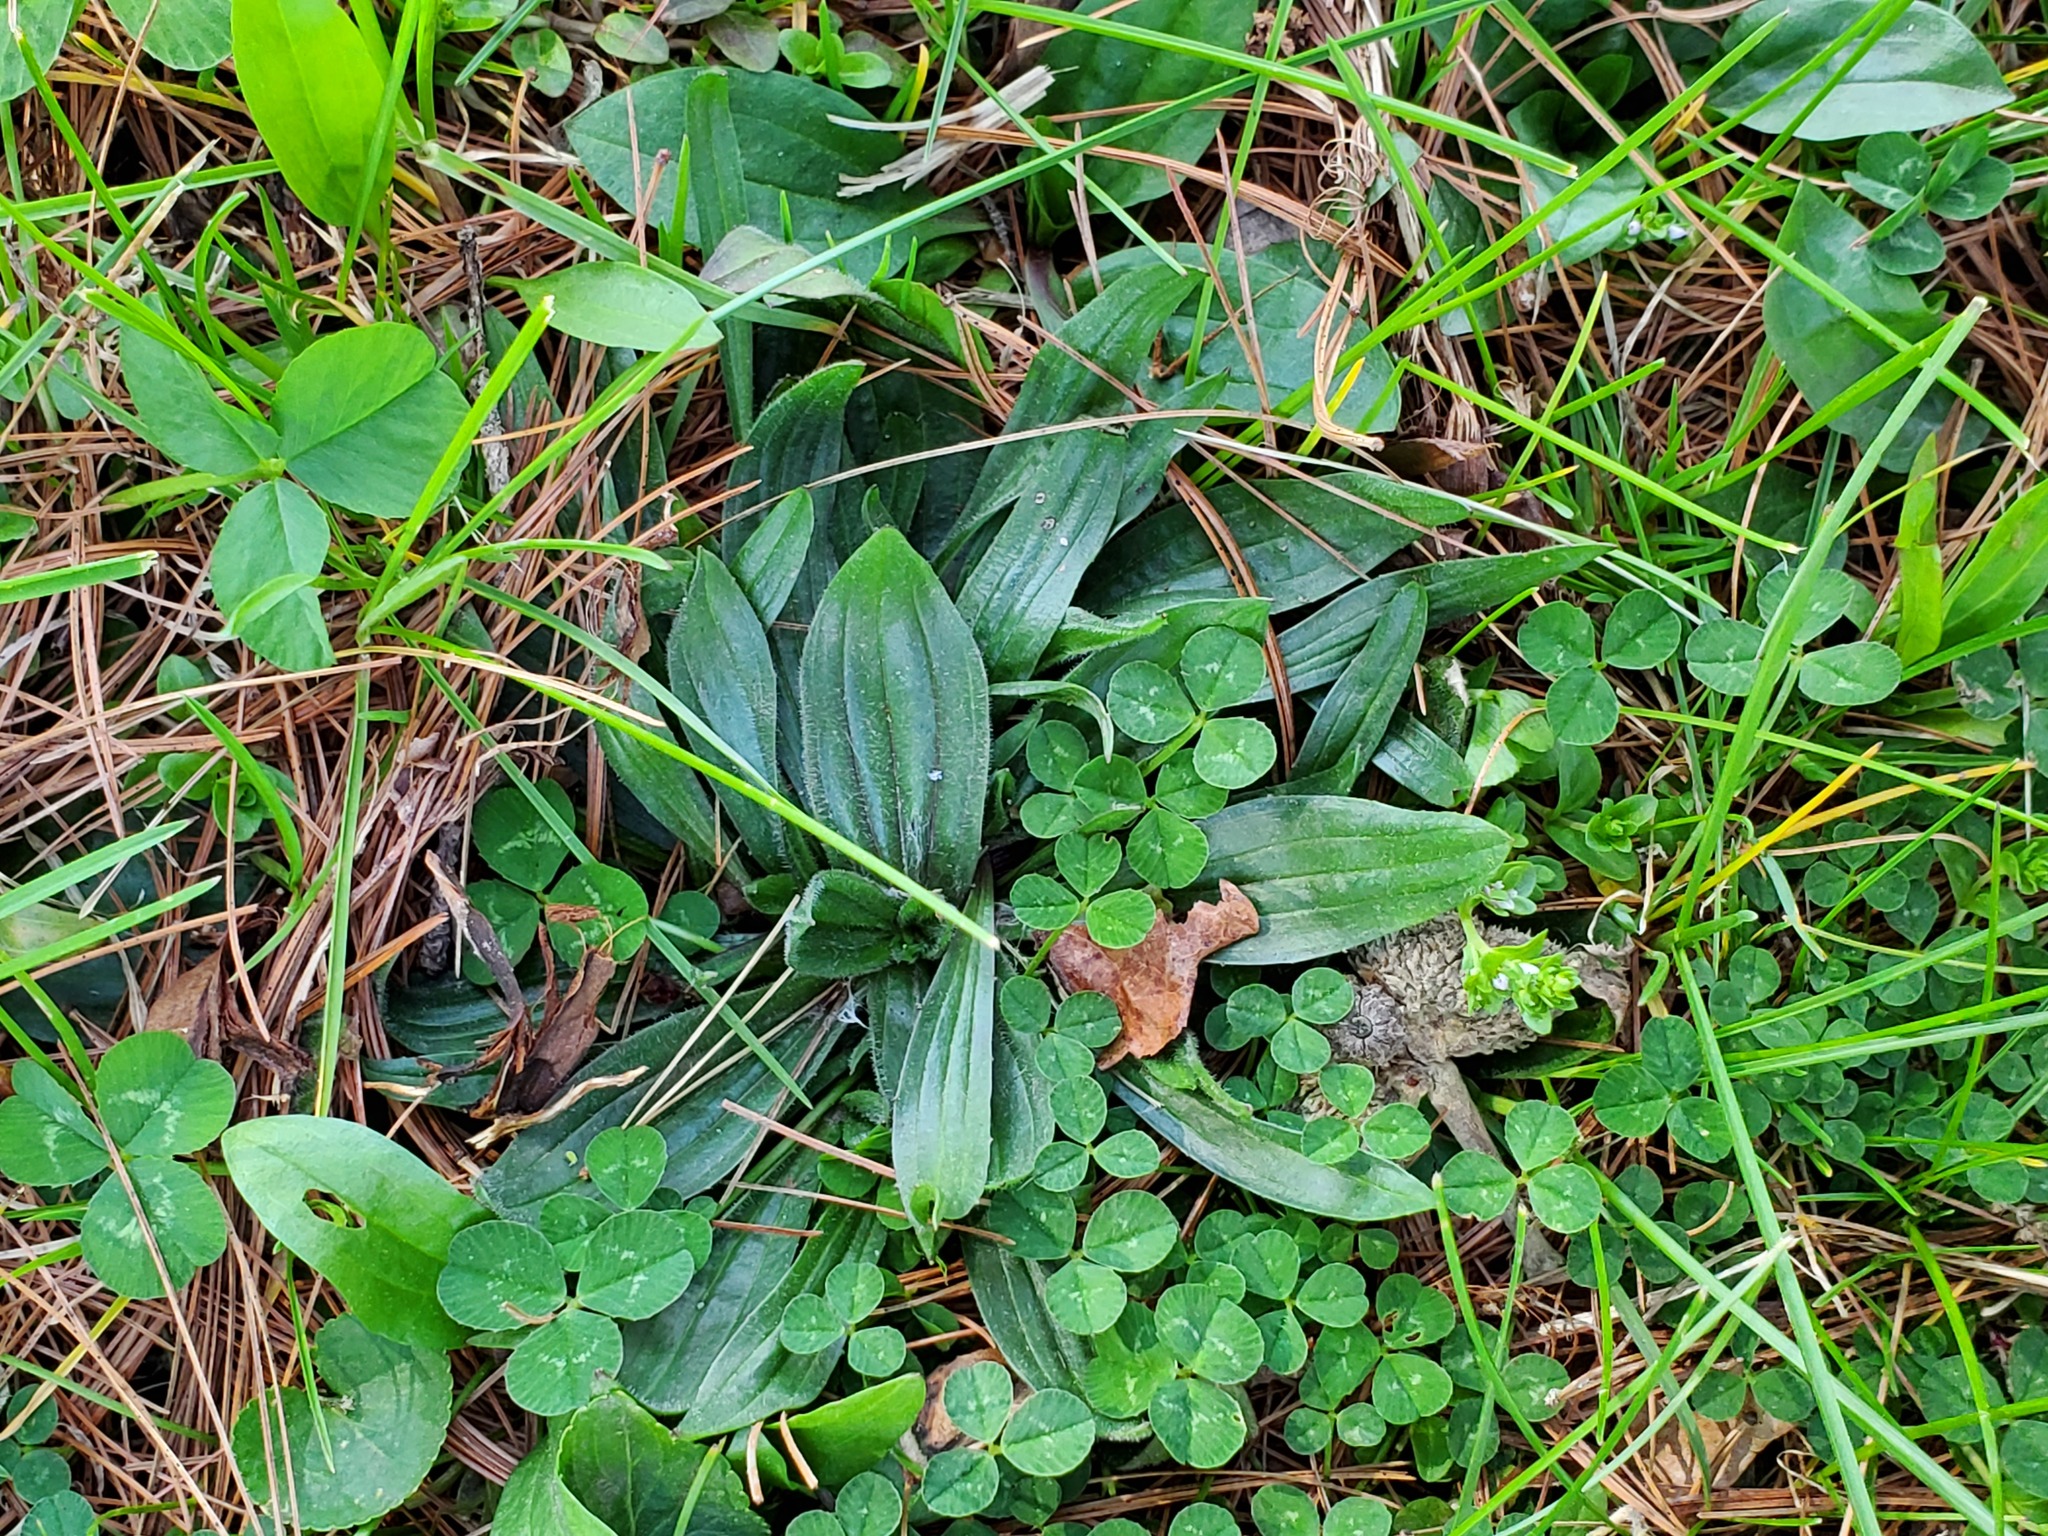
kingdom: Plantae
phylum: Tracheophyta
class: Magnoliopsida
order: Lamiales
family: Plantaginaceae
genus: Plantago
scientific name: Plantago lanceolata
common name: Ribwort plantain
